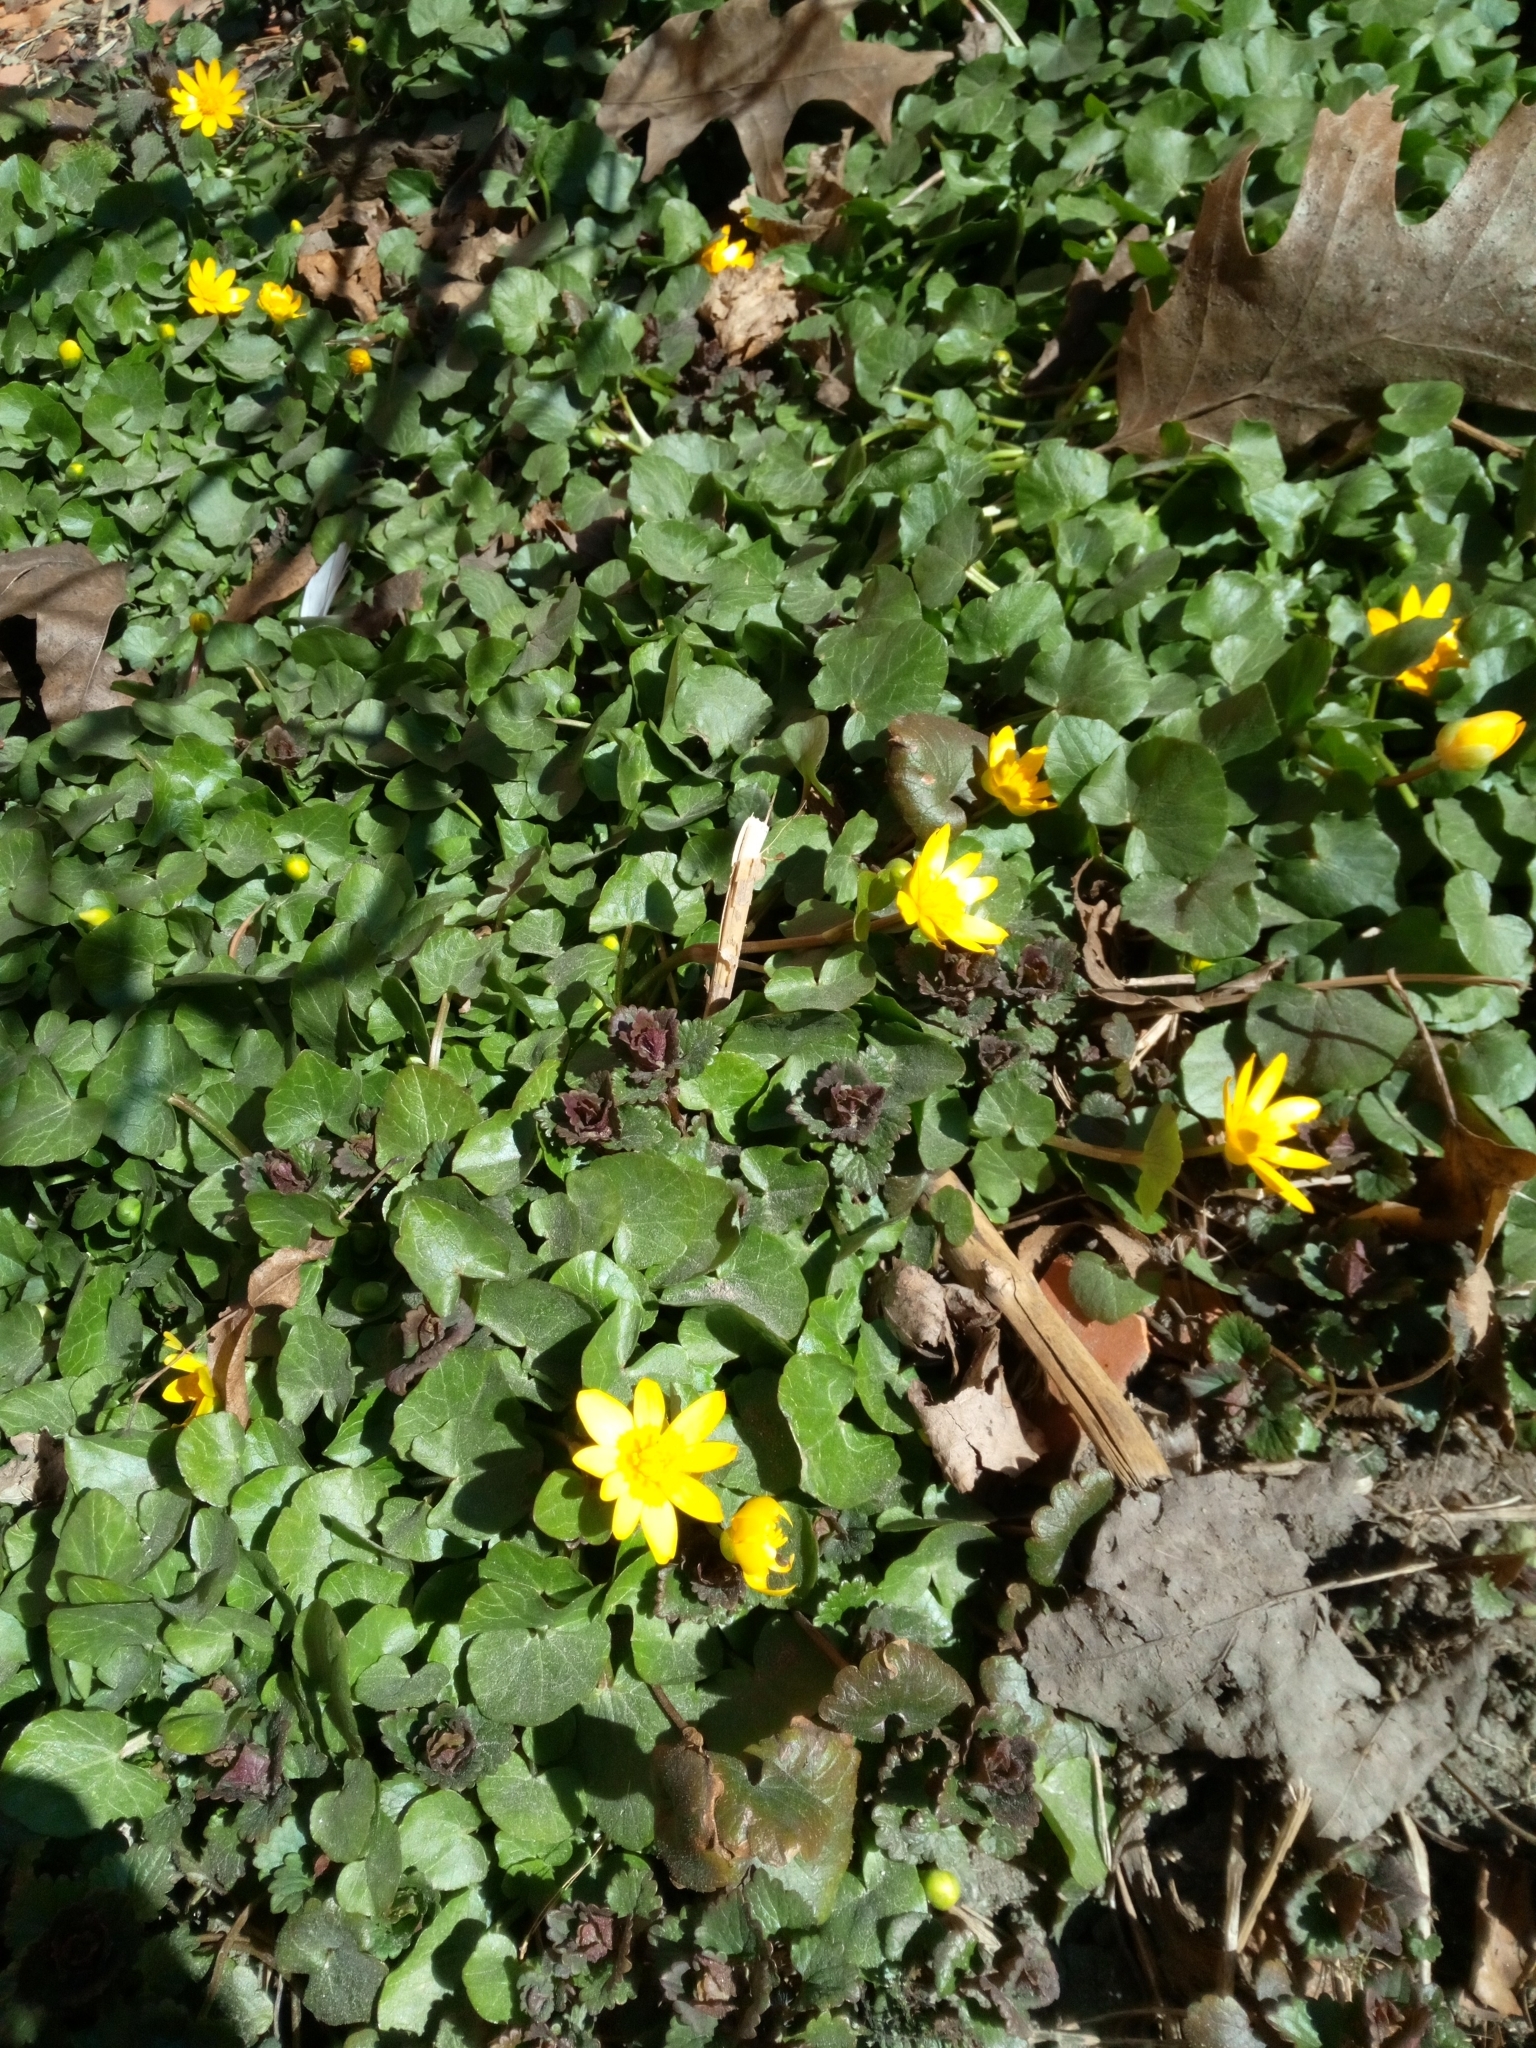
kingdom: Plantae
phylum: Tracheophyta
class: Magnoliopsida
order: Ranunculales
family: Ranunculaceae
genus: Ficaria
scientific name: Ficaria verna
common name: Lesser celandine
